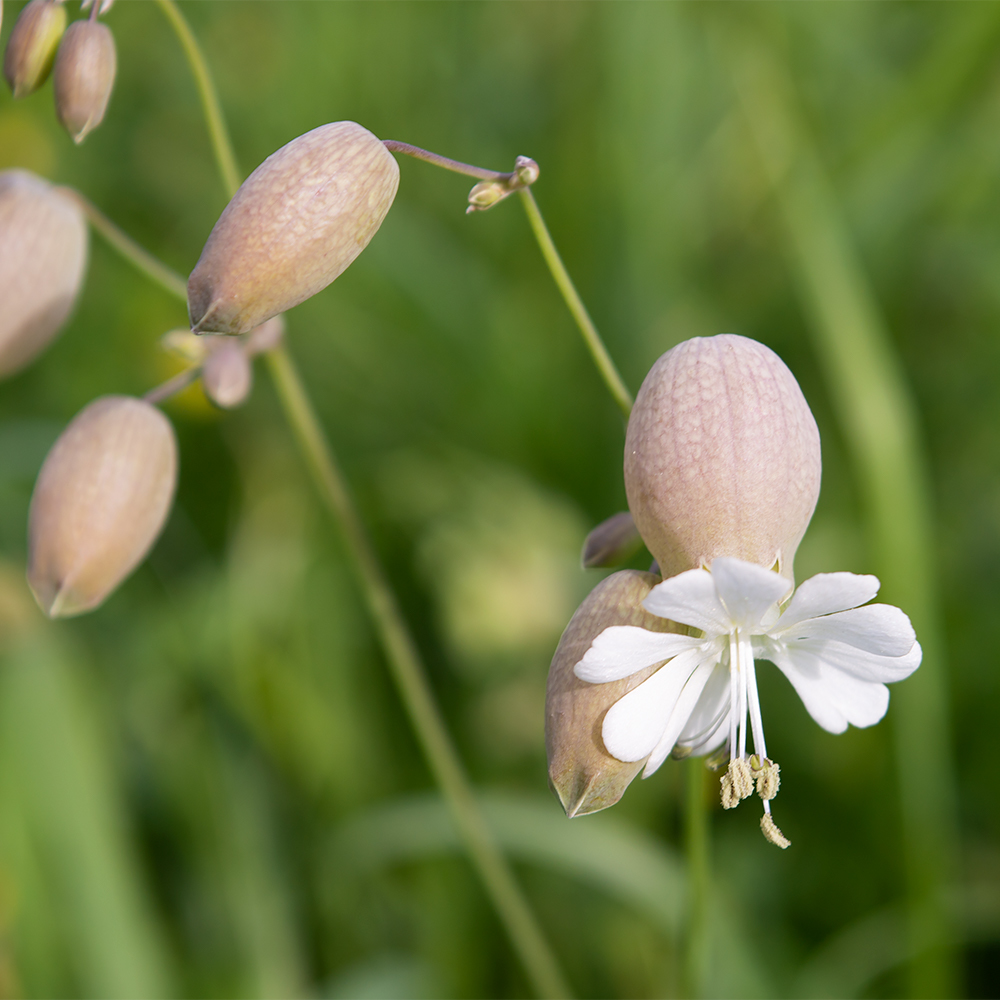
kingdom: Plantae
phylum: Tracheophyta
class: Magnoliopsida
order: Caryophyllales
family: Caryophyllaceae
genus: Silene
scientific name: Silene vulgaris
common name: Bladder campion
